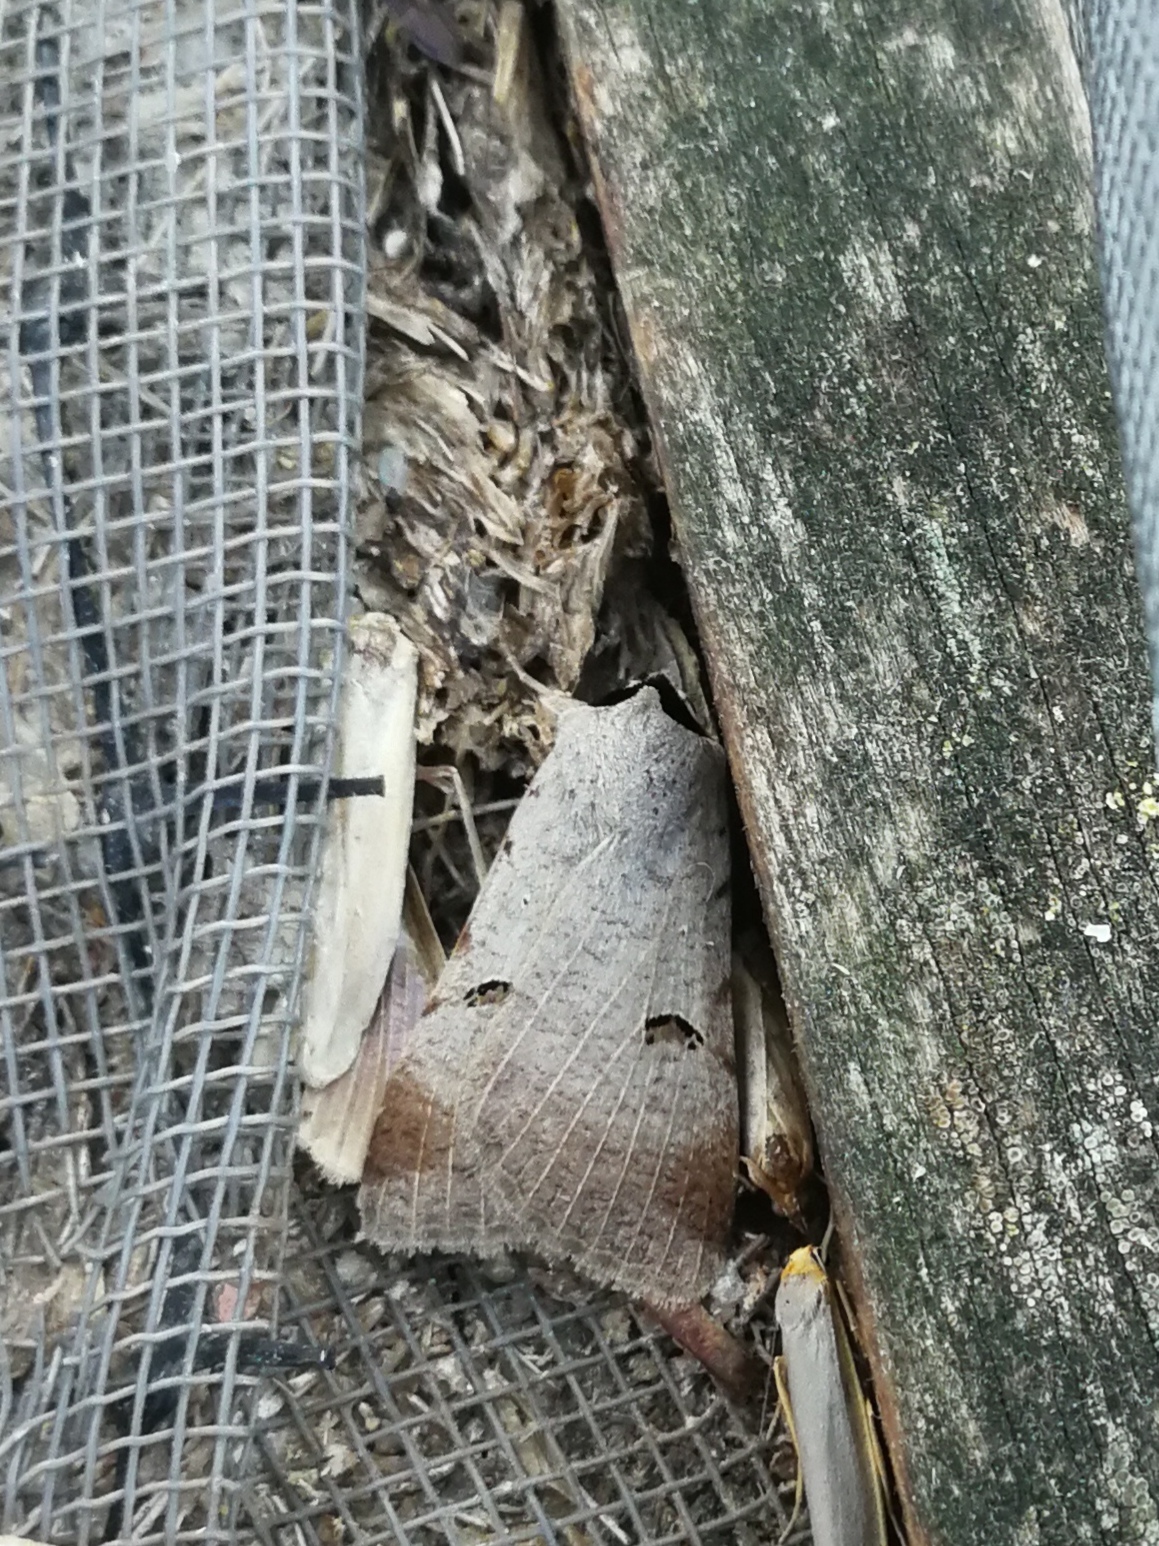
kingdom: Animalia
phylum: Arthropoda
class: Insecta
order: Lepidoptera
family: Erebidae
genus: Lygephila
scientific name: Lygephila craccae
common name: Scarce blackneck
